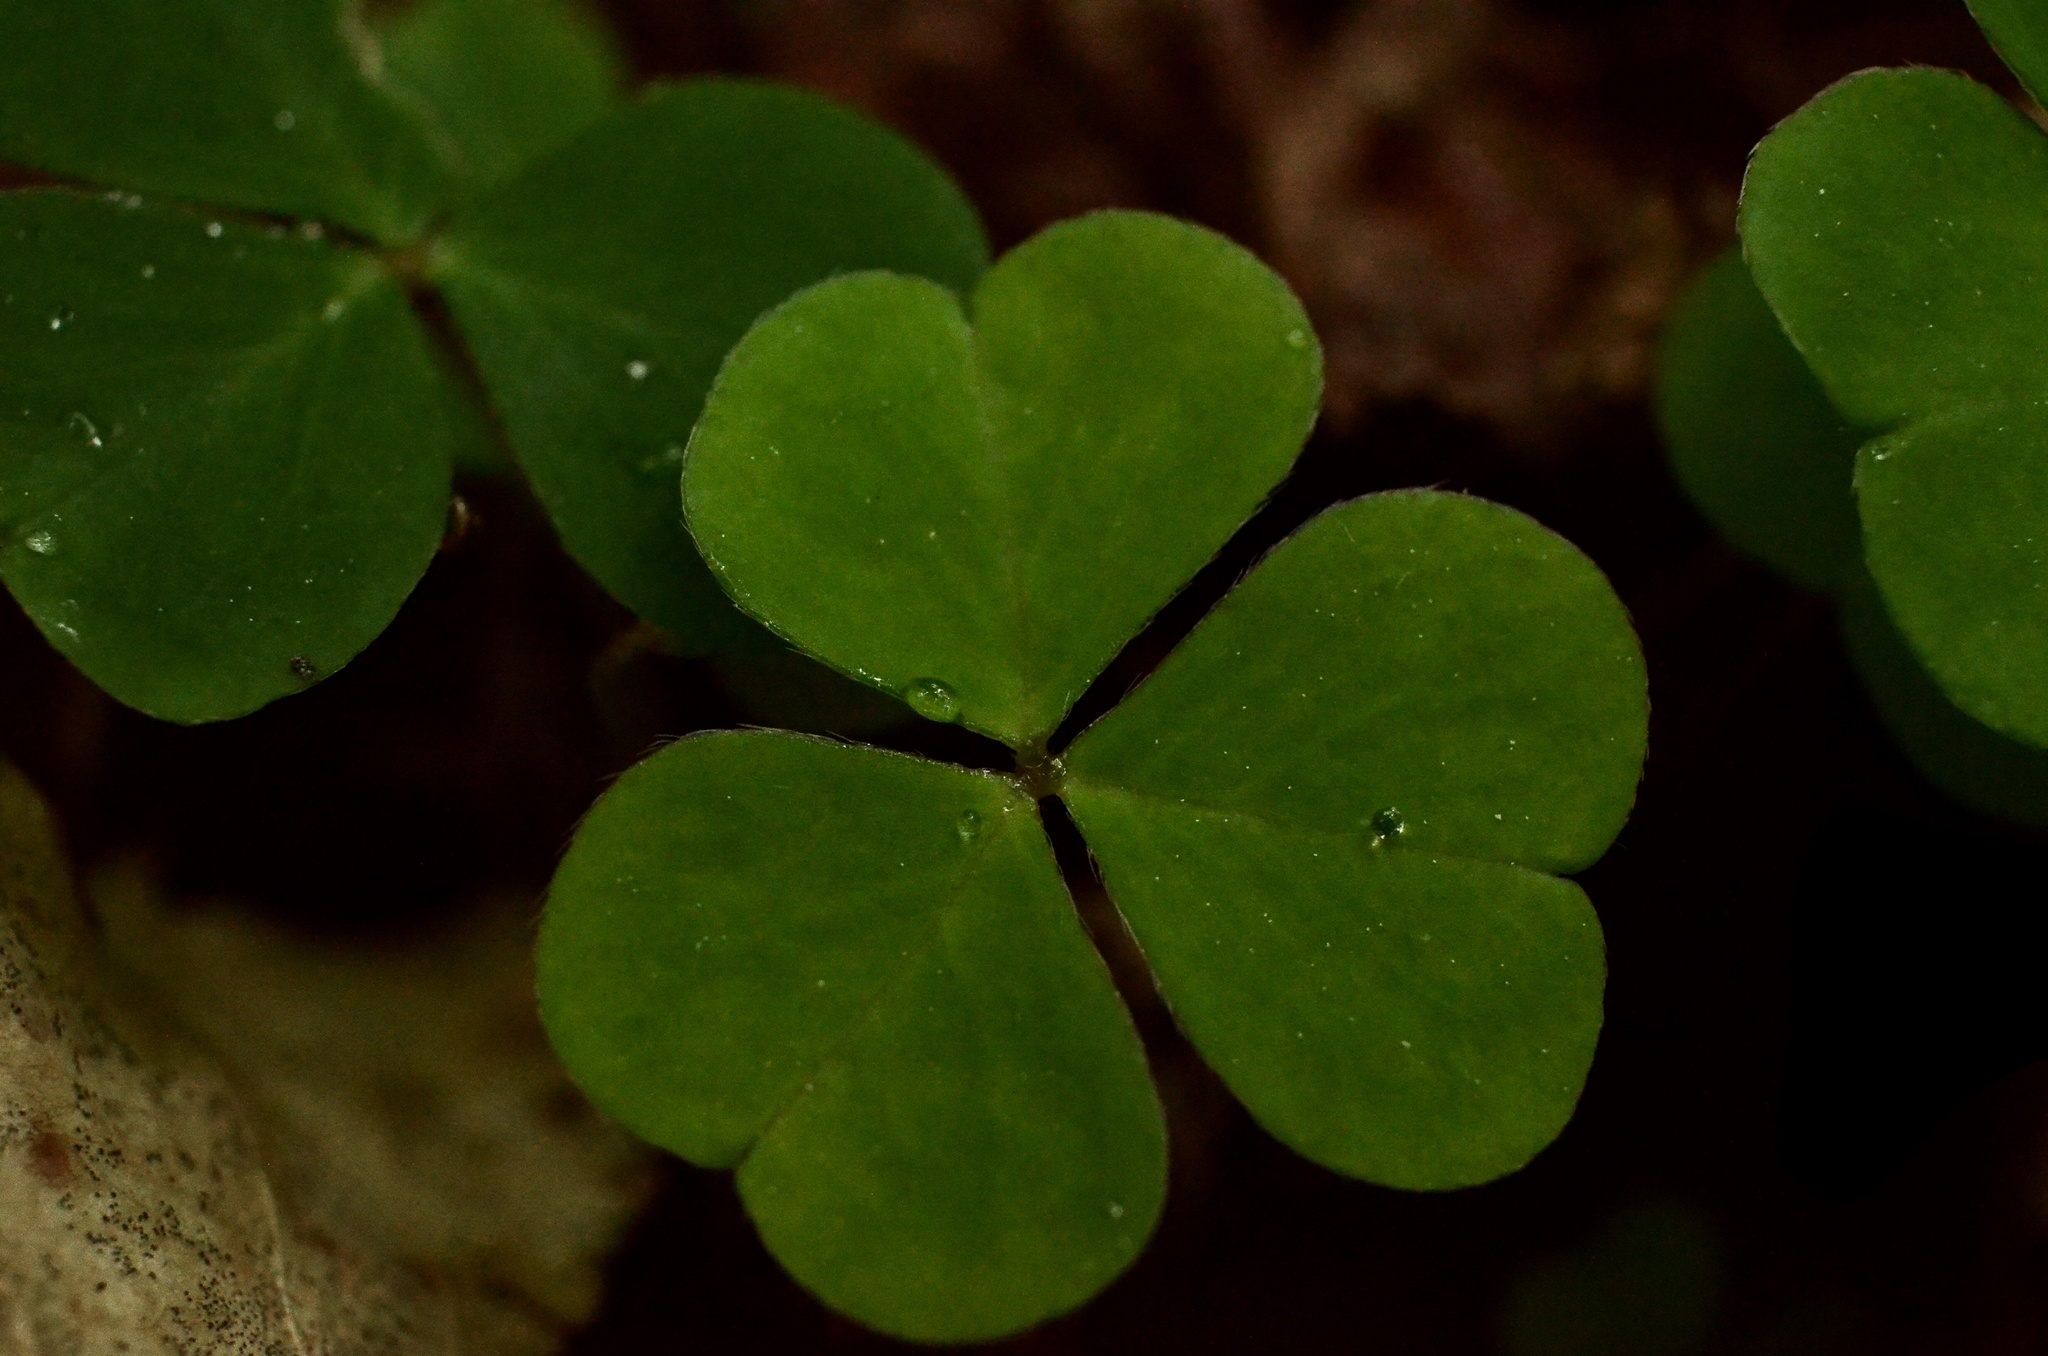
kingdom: Plantae
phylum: Tracheophyta
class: Magnoliopsida
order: Oxalidales
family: Oxalidaceae
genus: Oxalis
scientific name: Oxalis acetosella
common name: Wood-sorrel
